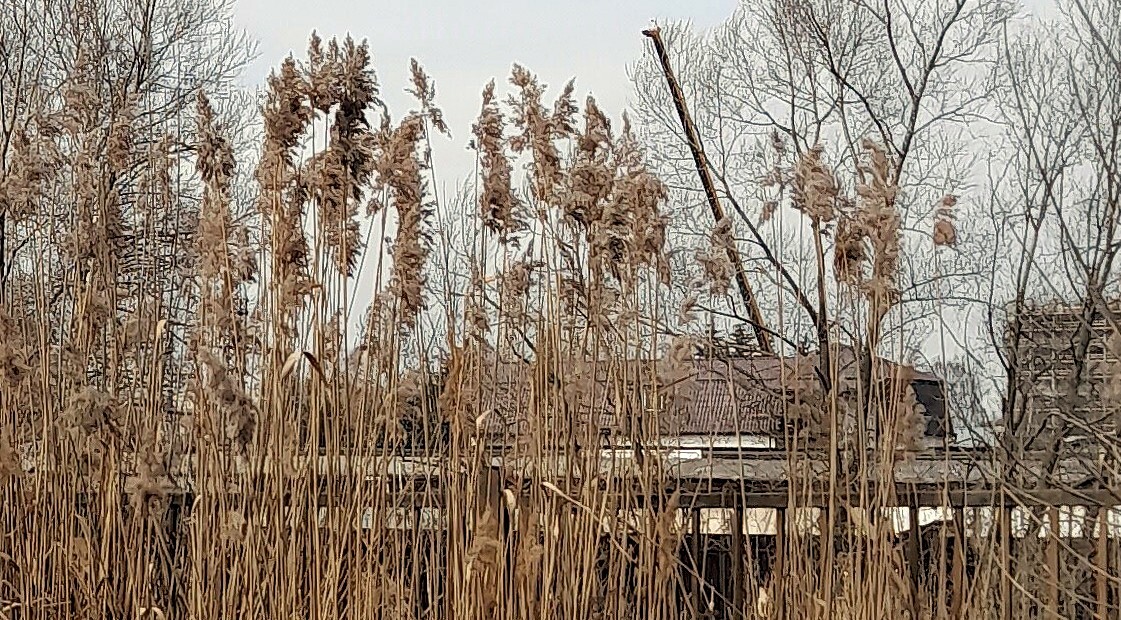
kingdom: Plantae
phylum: Tracheophyta
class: Liliopsida
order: Poales
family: Poaceae
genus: Phragmites
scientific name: Phragmites australis
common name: Common reed
